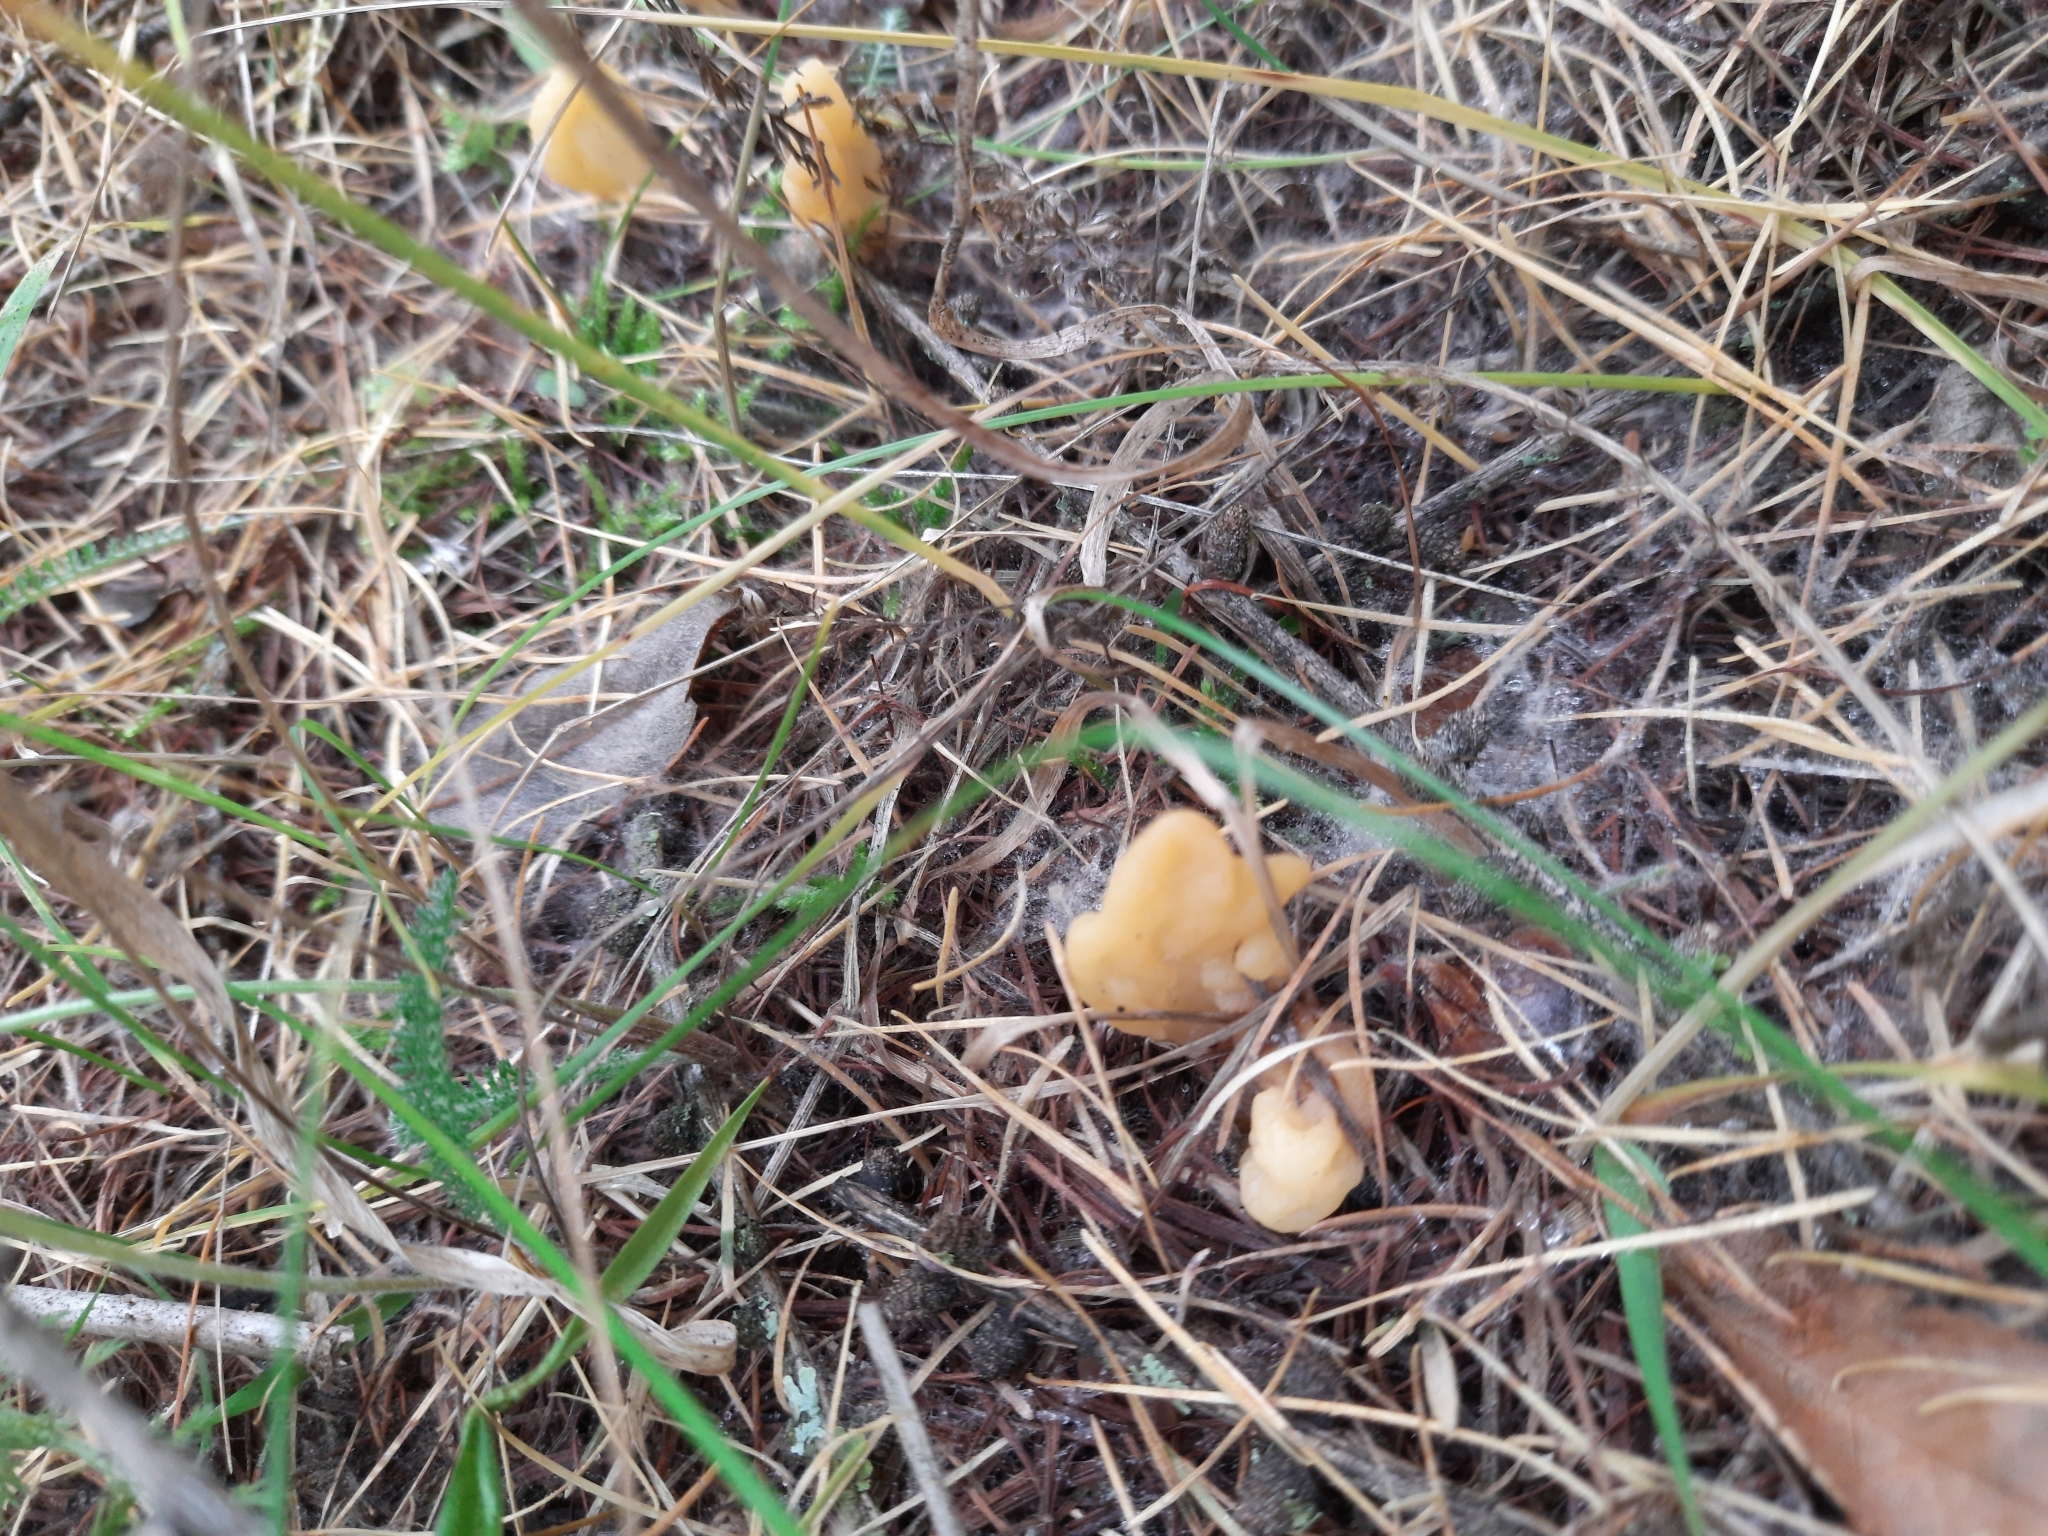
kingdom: Fungi
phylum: Ascomycota
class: Leotiomycetes
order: Rhytismatales
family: Cudoniaceae
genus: Spathularia
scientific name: Spathularia flavida
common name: Yellow fan
